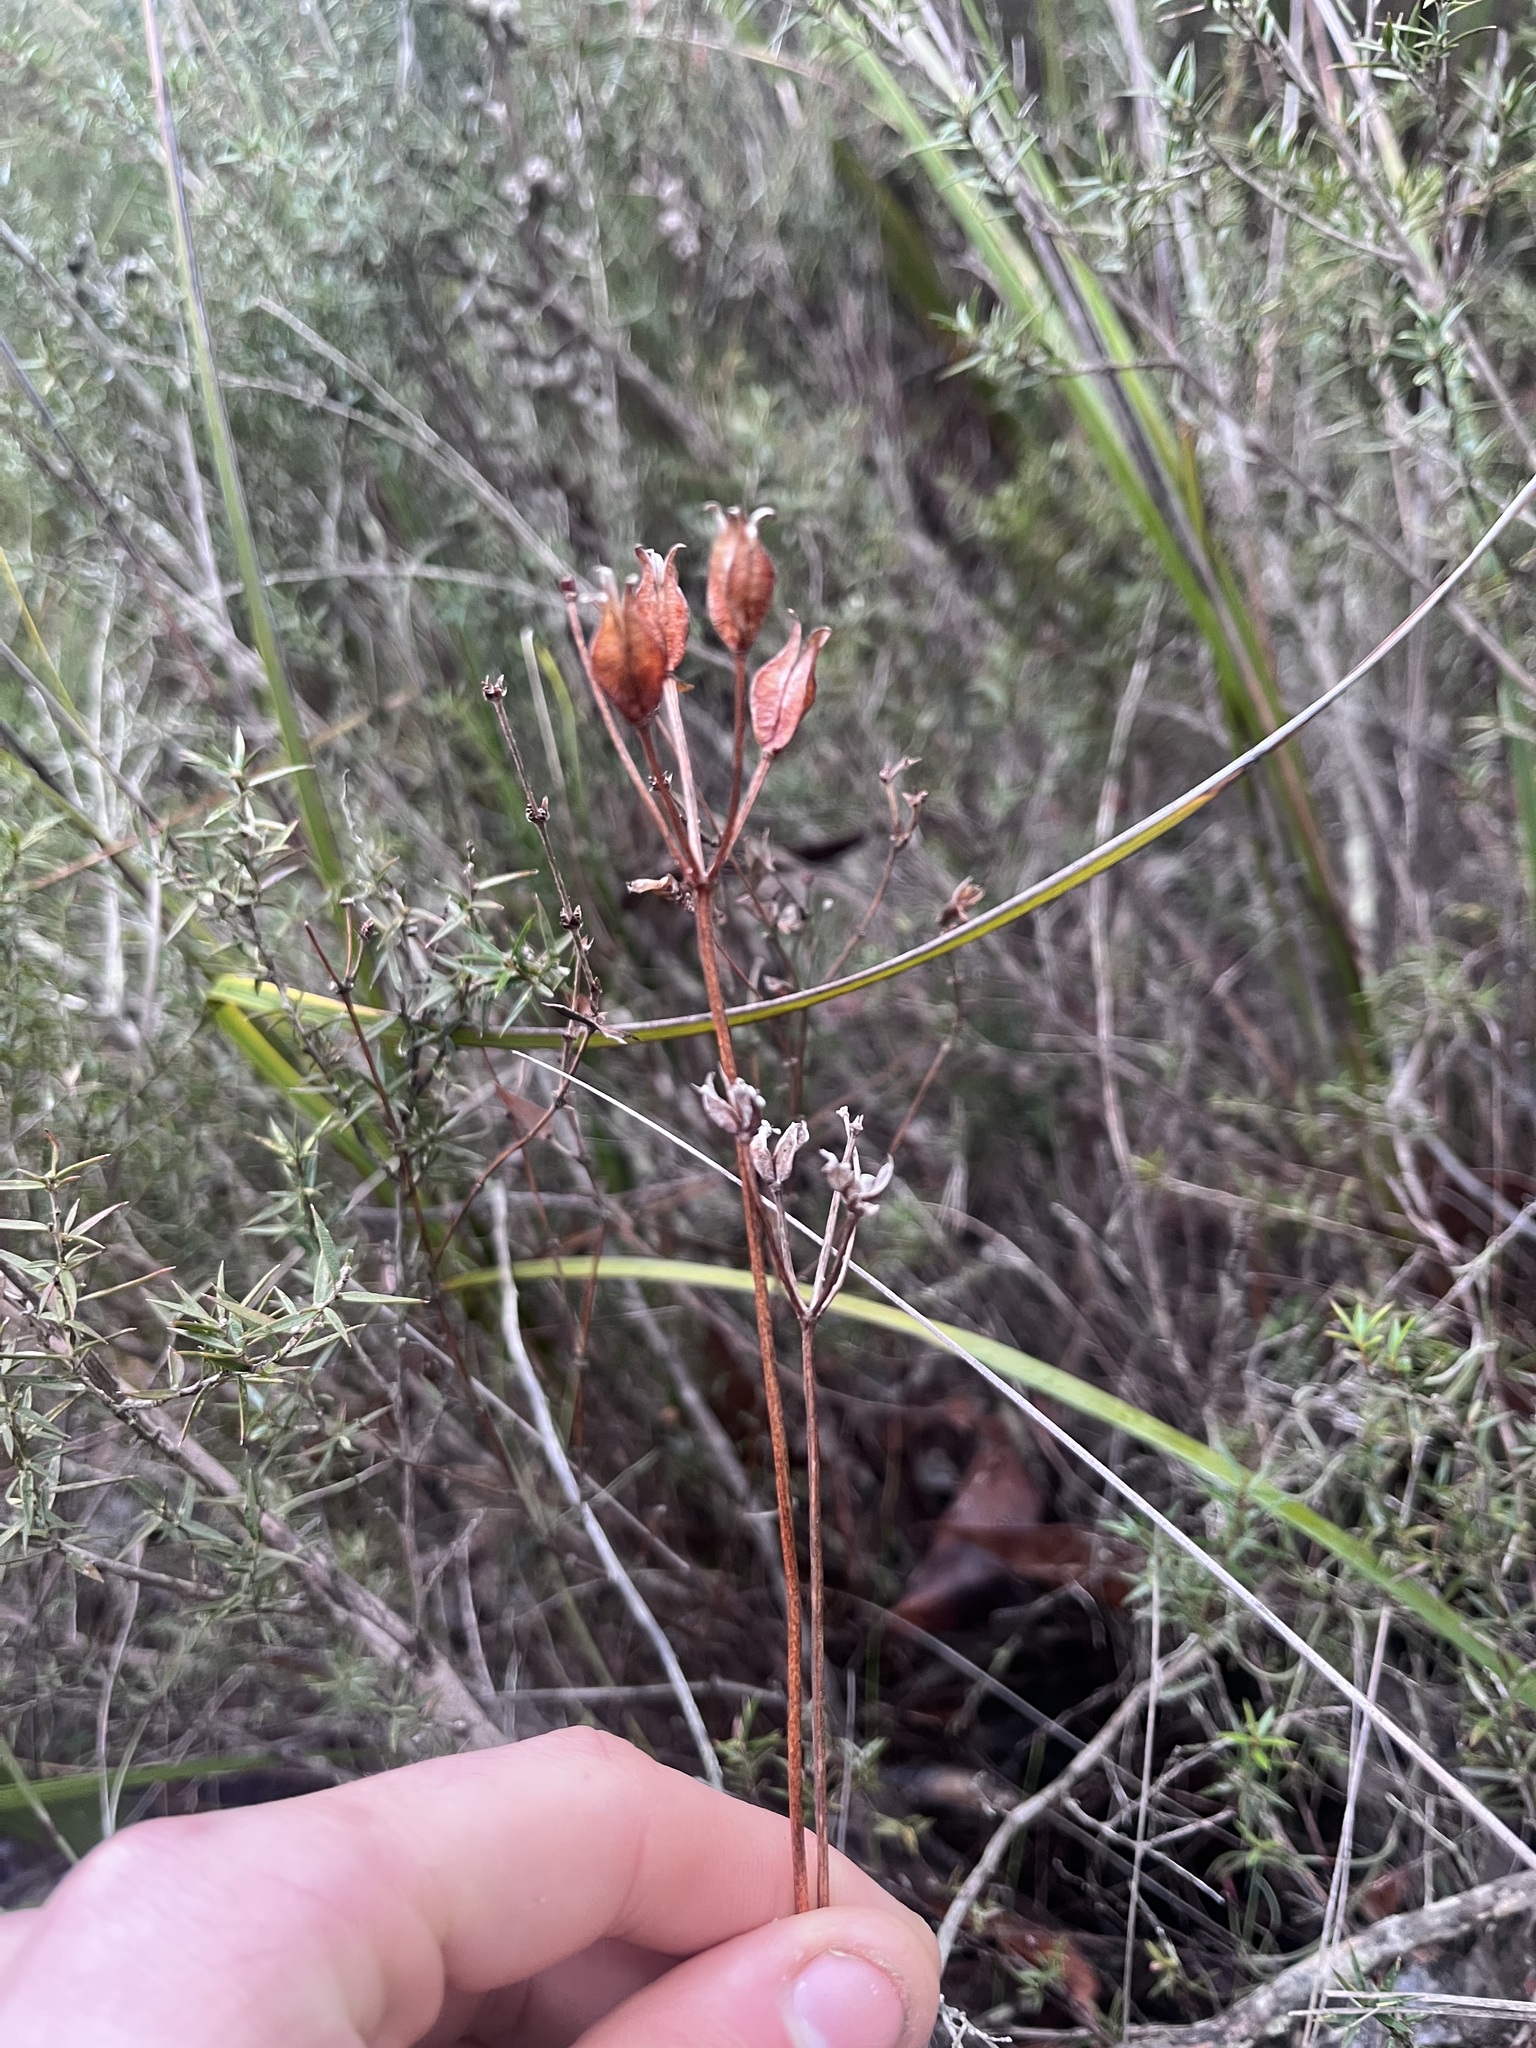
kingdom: Plantae
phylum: Tracheophyta
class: Liliopsida
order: Liliales
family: Colchicaceae
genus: Burchardia
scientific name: Burchardia umbellata
